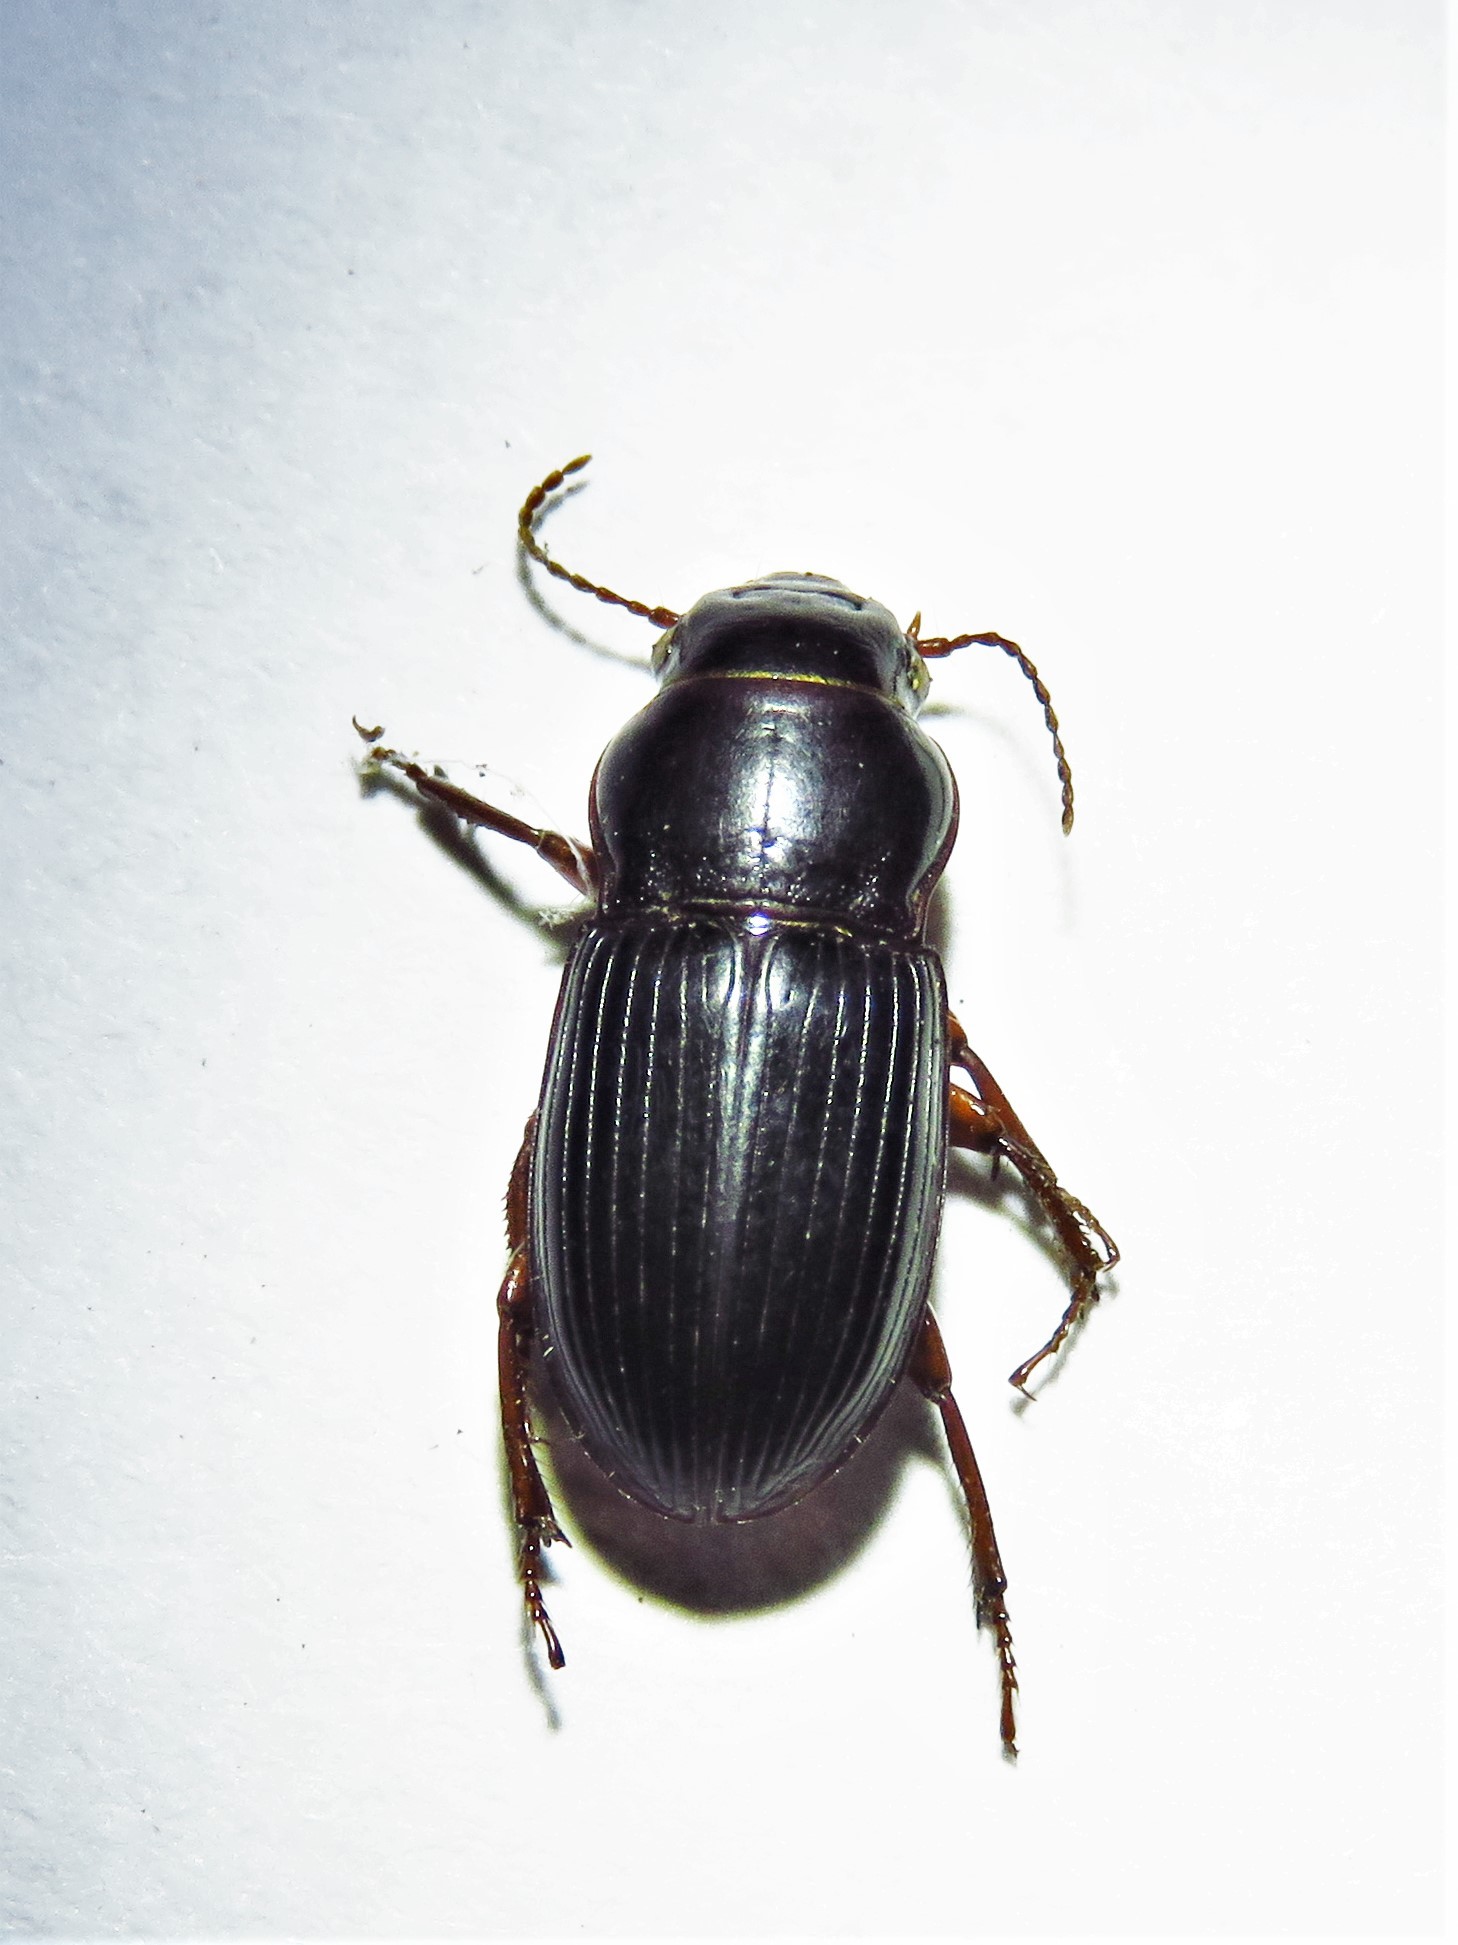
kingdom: Animalia
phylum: Arthropoda
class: Insecta
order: Coleoptera
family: Carabidae
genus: Cratacanthus
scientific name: Cratacanthus dubius
